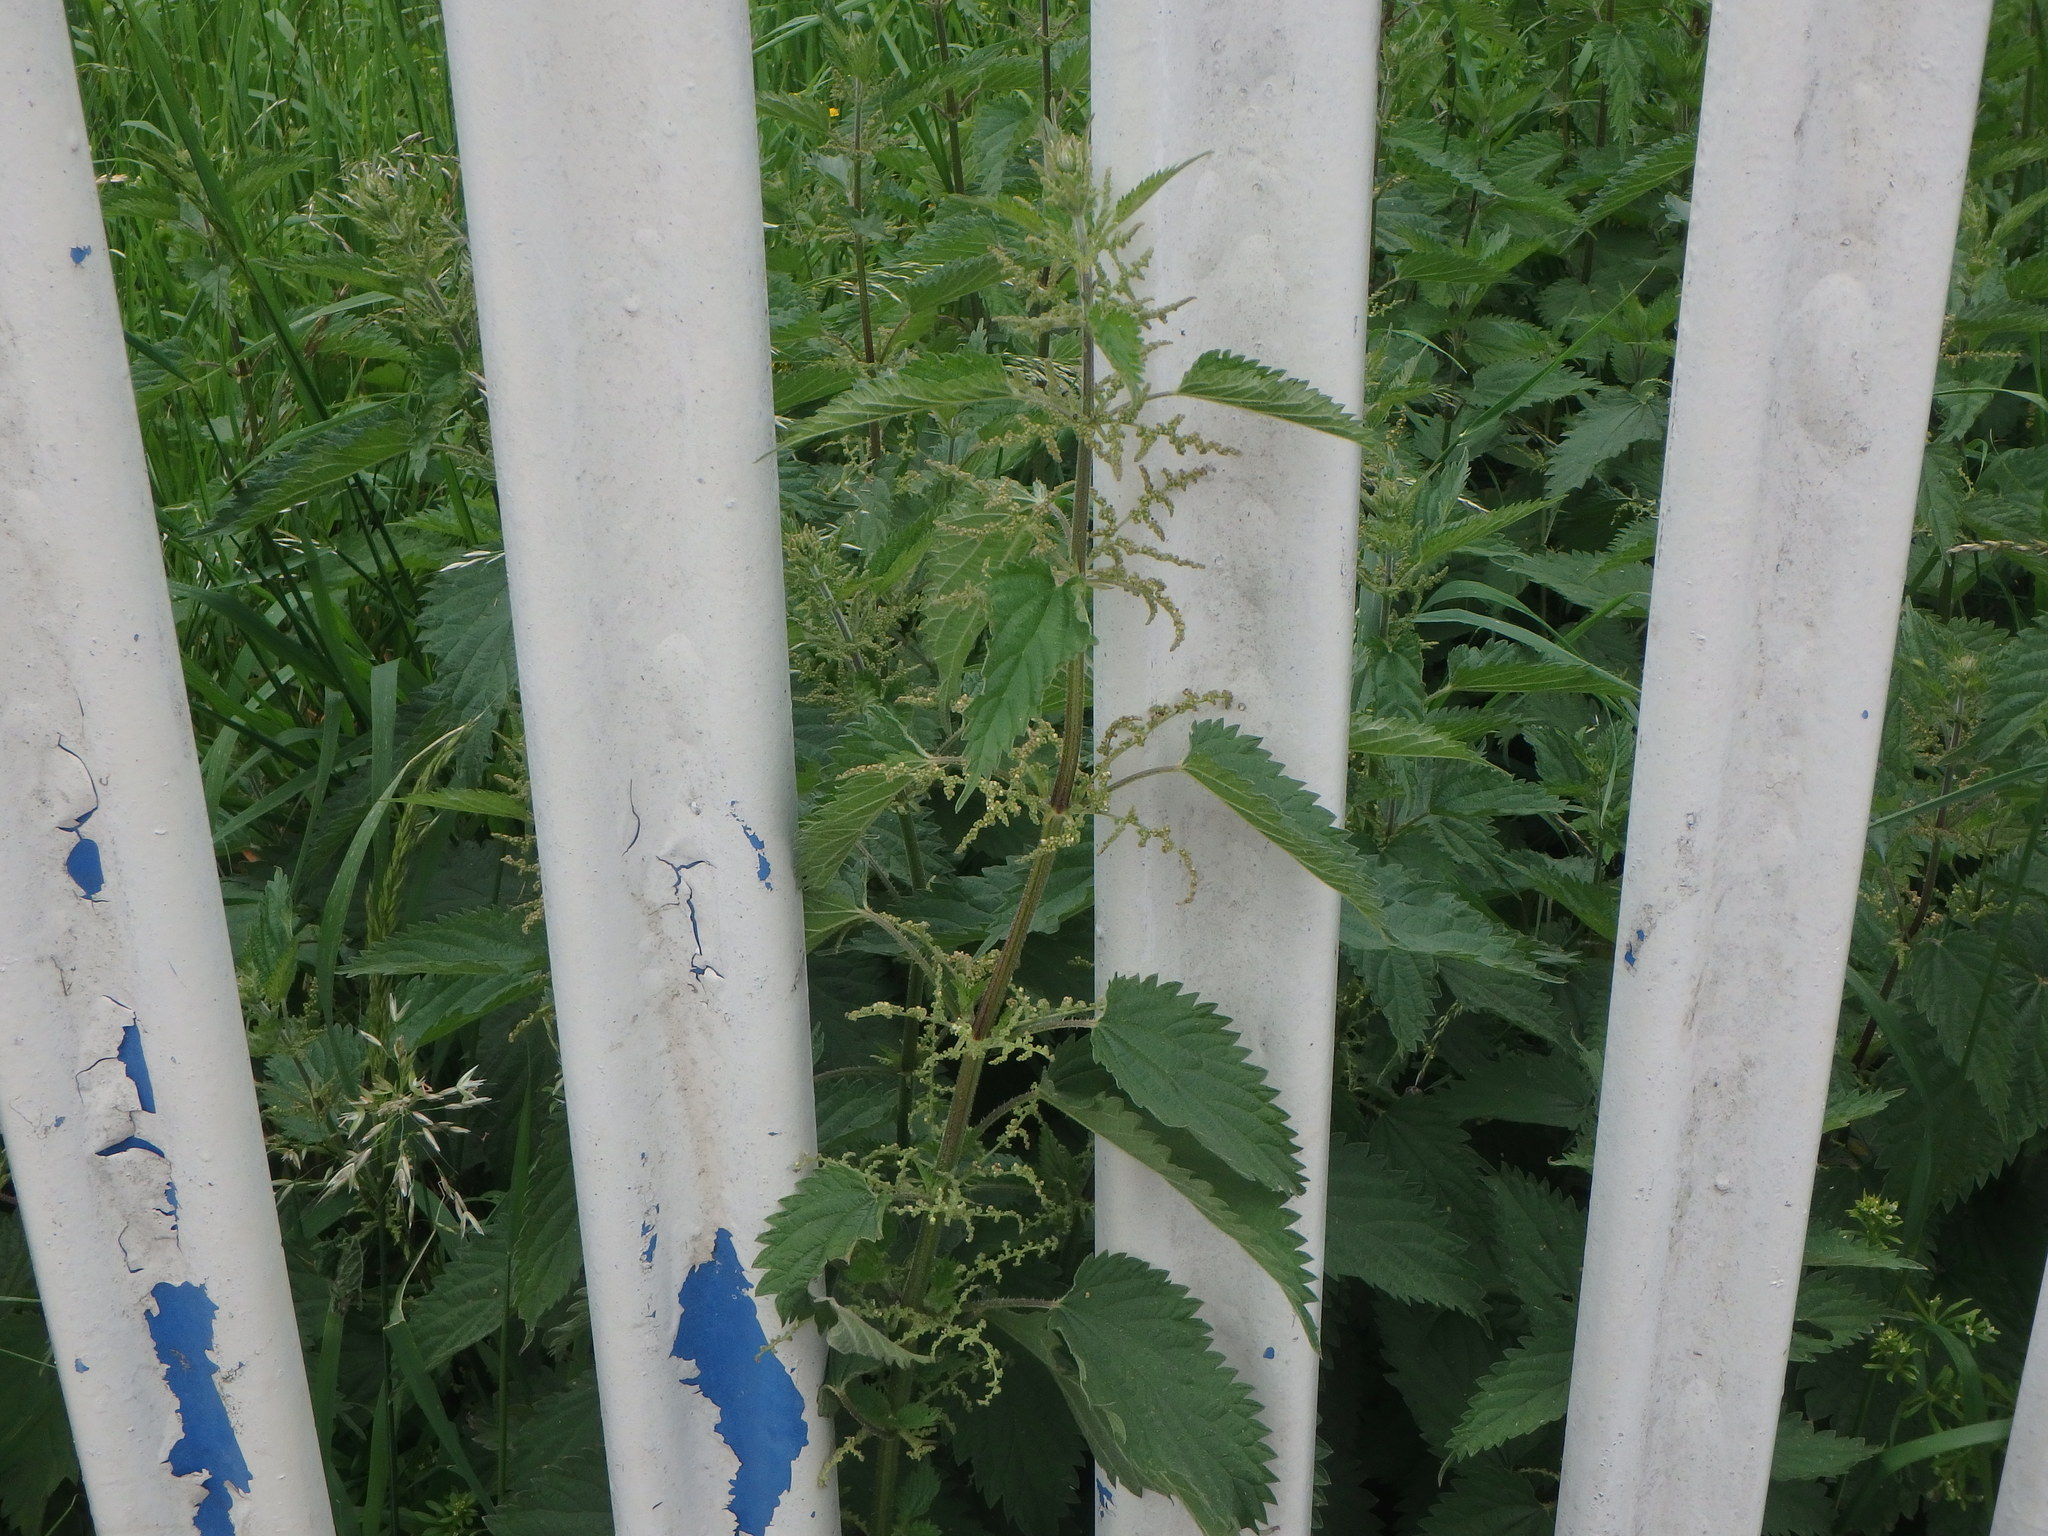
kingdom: Plantae
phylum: Tracheophyta
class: Magnoliopsida
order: Rosales
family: Urticaceae
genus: Urtica
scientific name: Urtica dioica
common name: Common nettle
